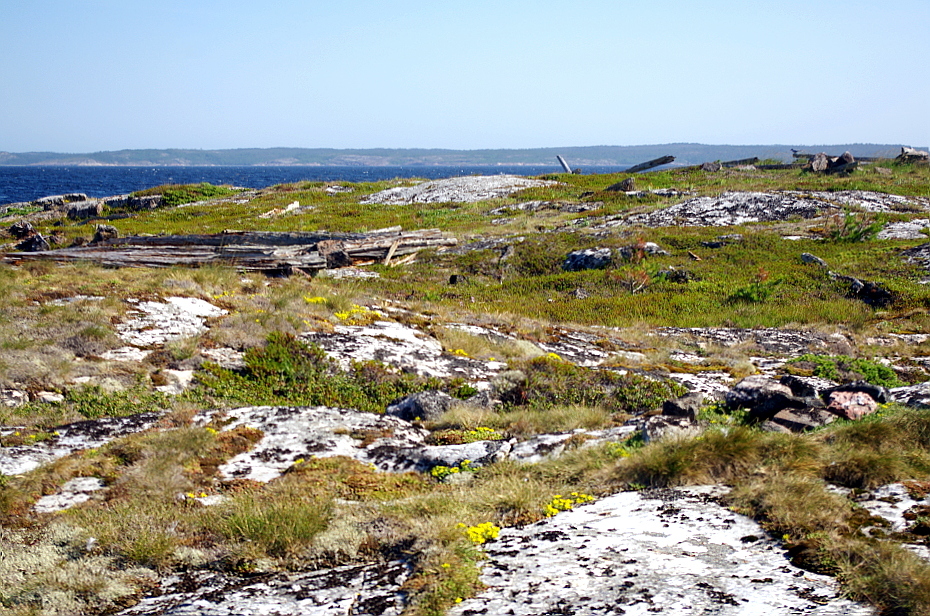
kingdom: Plantae
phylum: Tracheophyta
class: Magnoliopsida
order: Saxifragales
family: Crassulaceae
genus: Sedum
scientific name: Sedum acre
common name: Biting stonecrop
